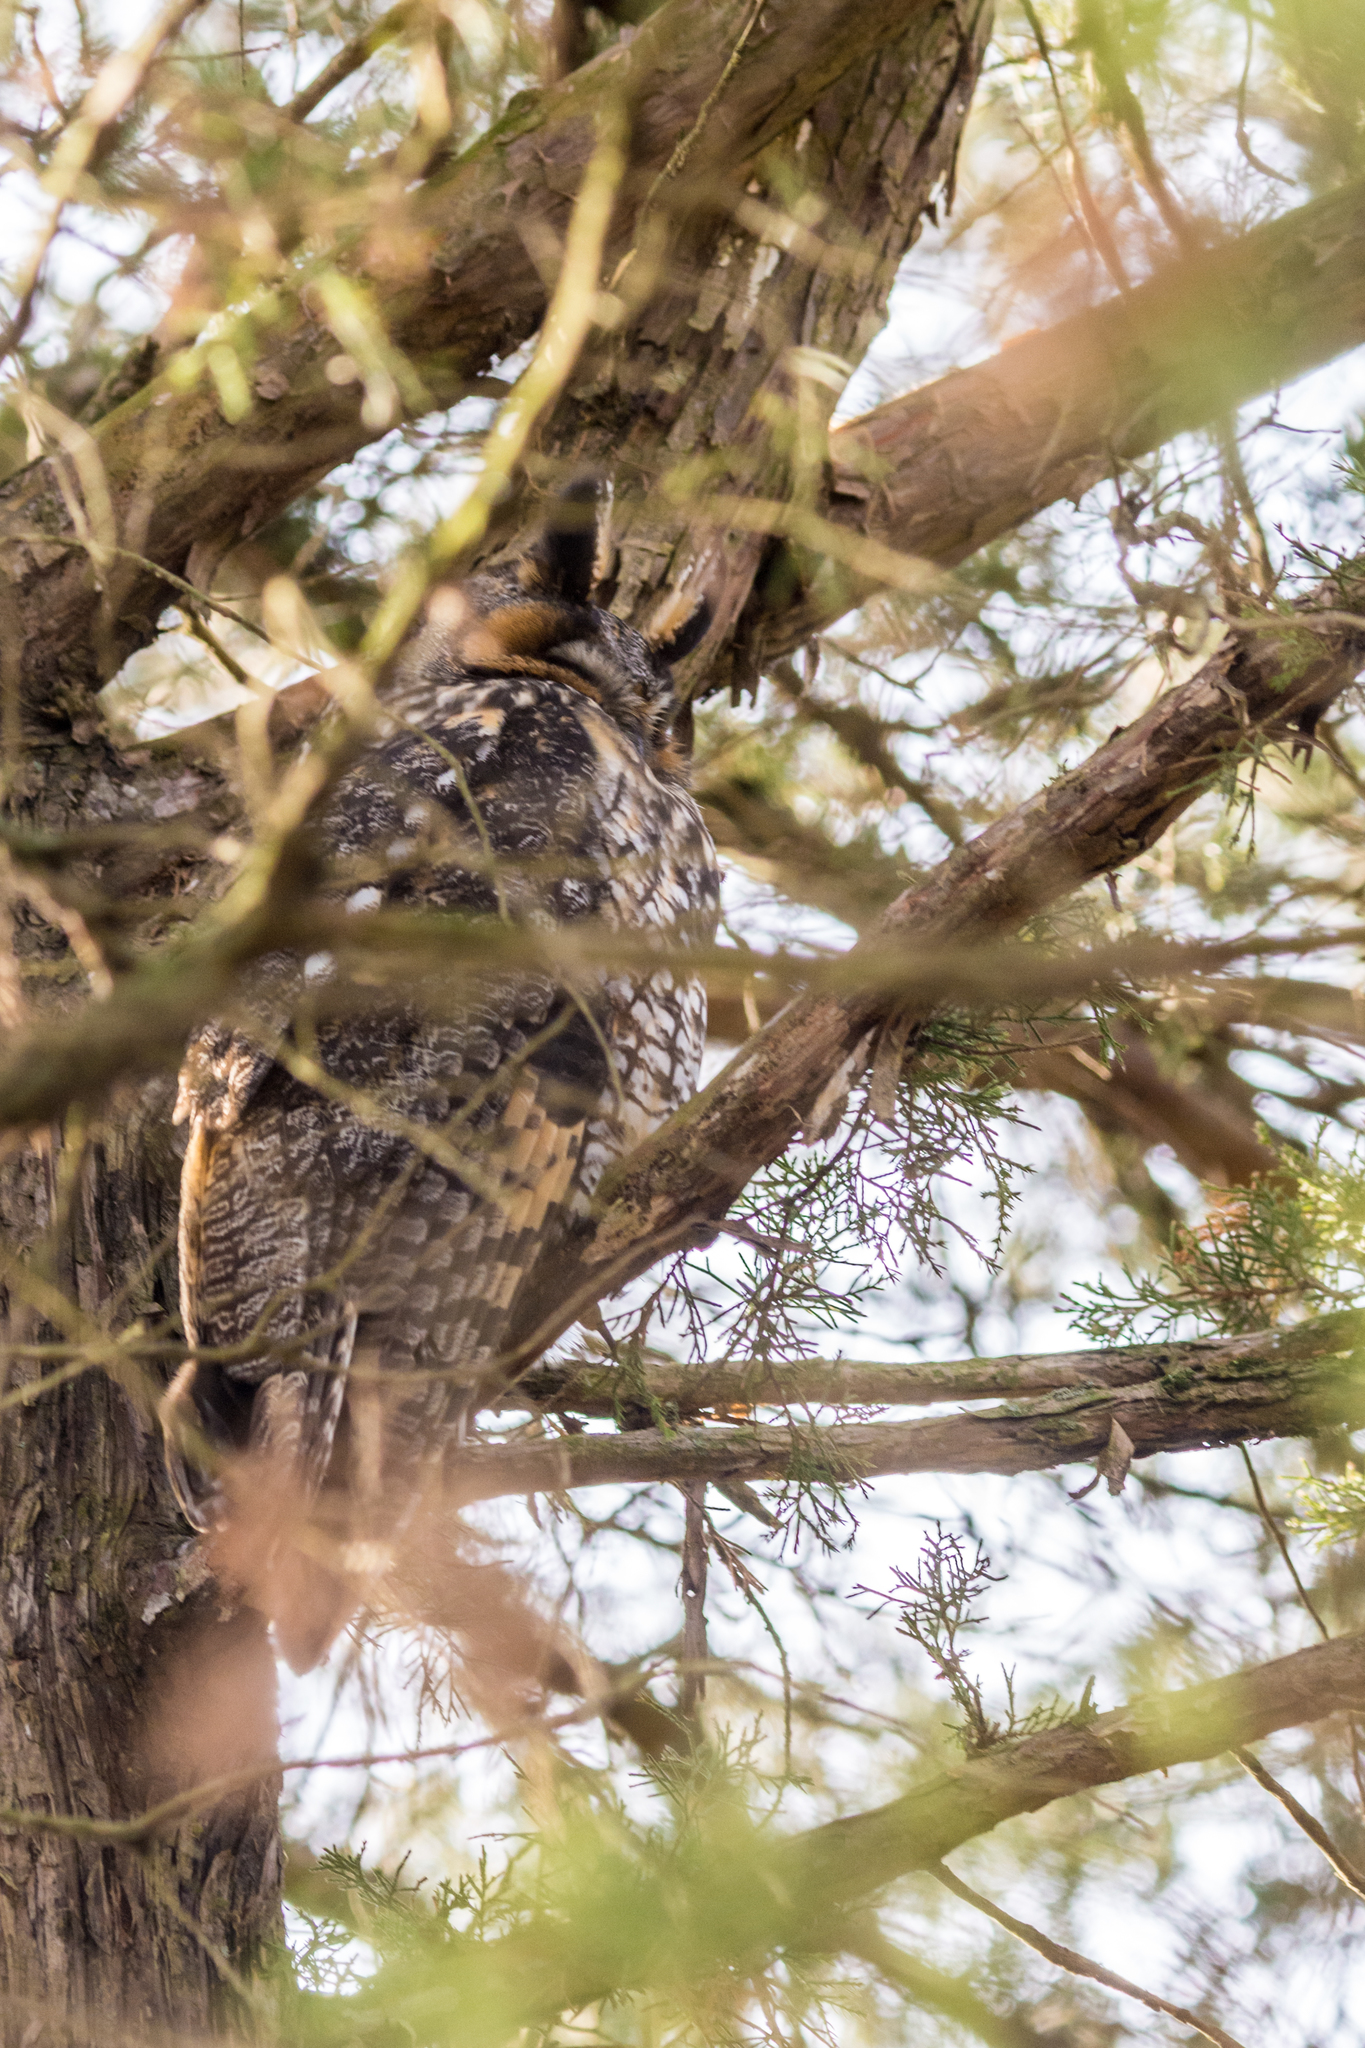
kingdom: Animalia
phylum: Chordata
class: Aves
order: Strigiformes
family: Strigidae
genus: Asio
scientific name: Asio otus
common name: Long-eared owl
